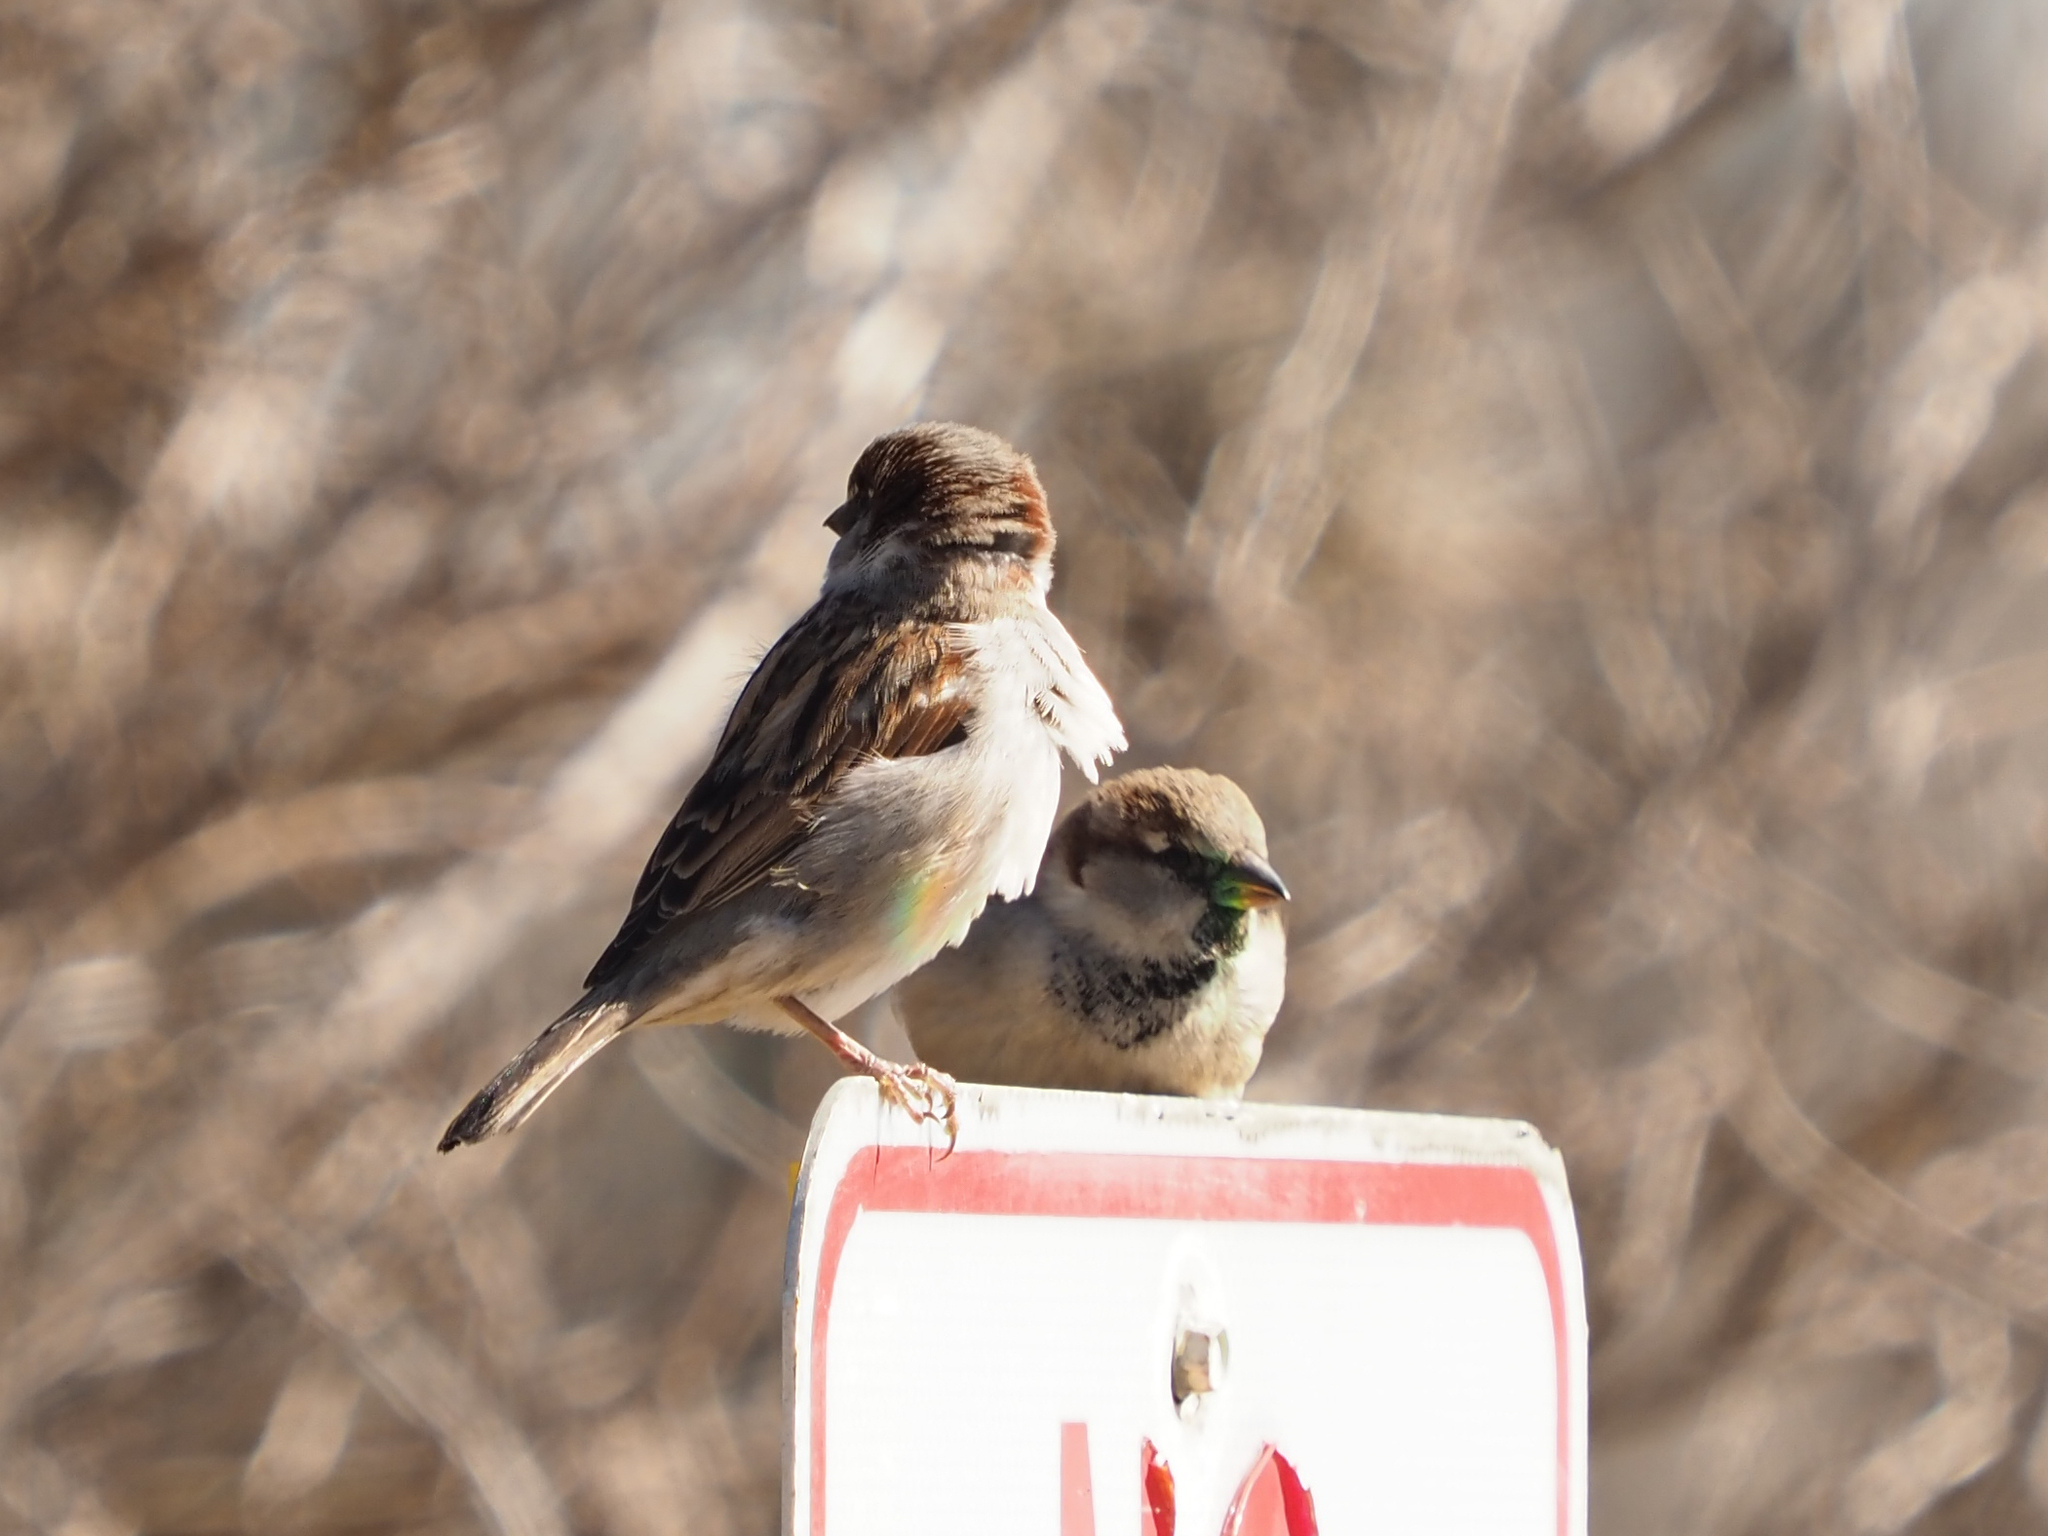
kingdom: Animalia
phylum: Chordata
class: Aves
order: Passeriformes
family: Passeridae
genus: Passer
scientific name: Passer domesticus
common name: House sparrow
